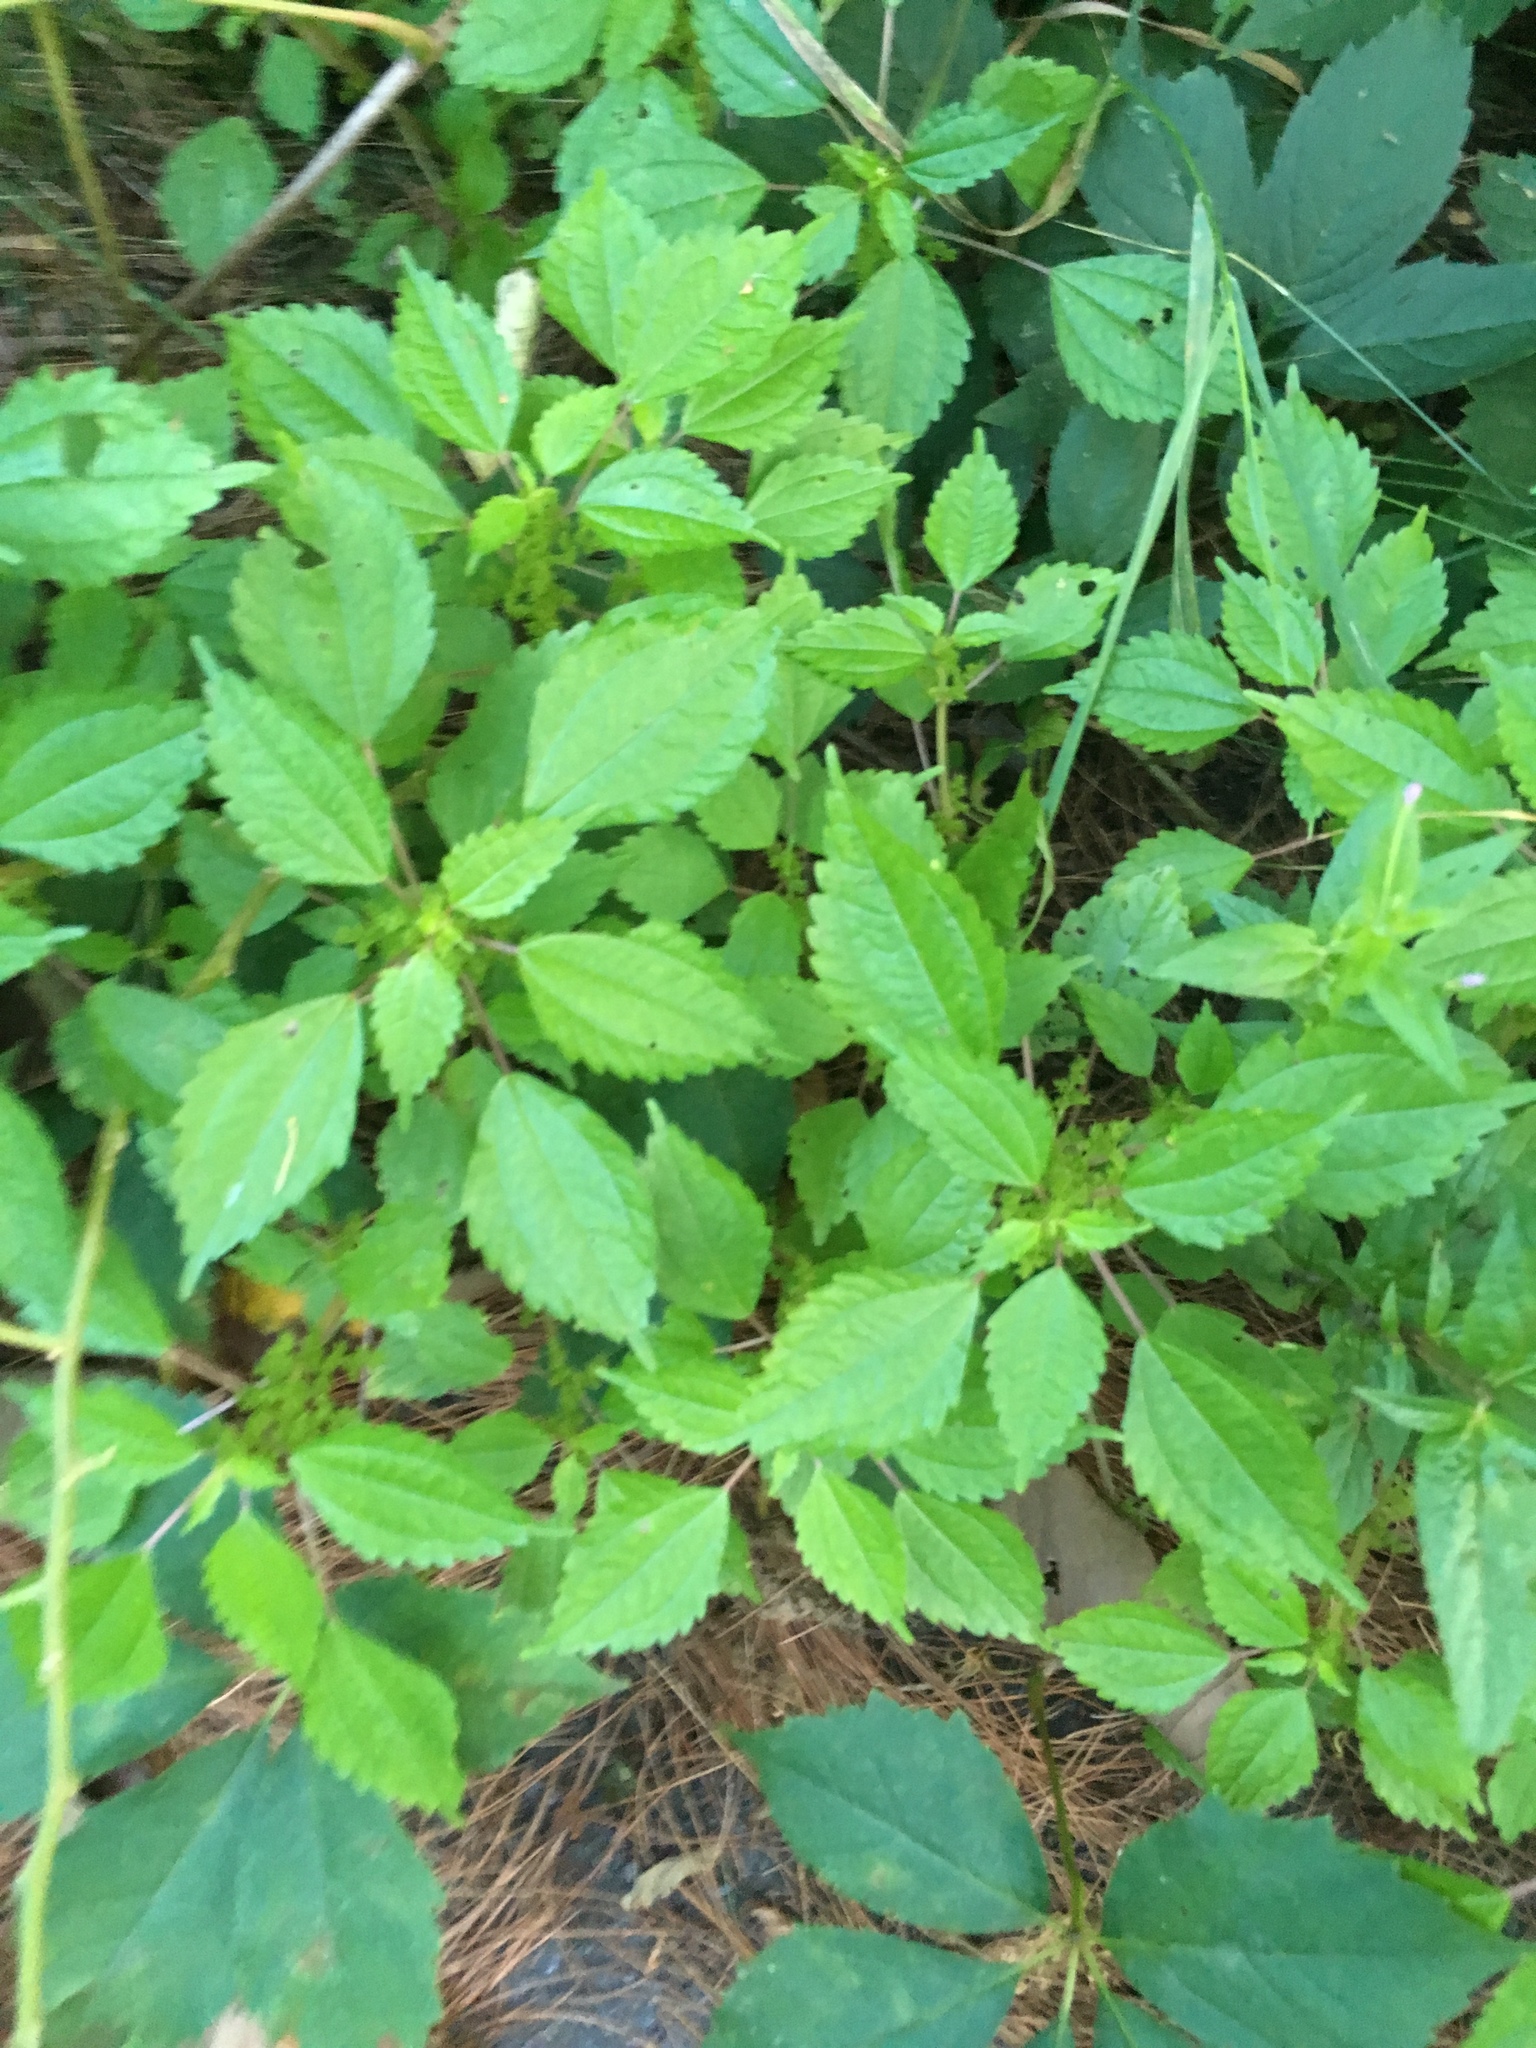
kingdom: Plantae
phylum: Tracheophyta
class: Magnoliopsida
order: Rosales
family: Urticaceae
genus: Pilea
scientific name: Pilea pumila
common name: Clearweed
